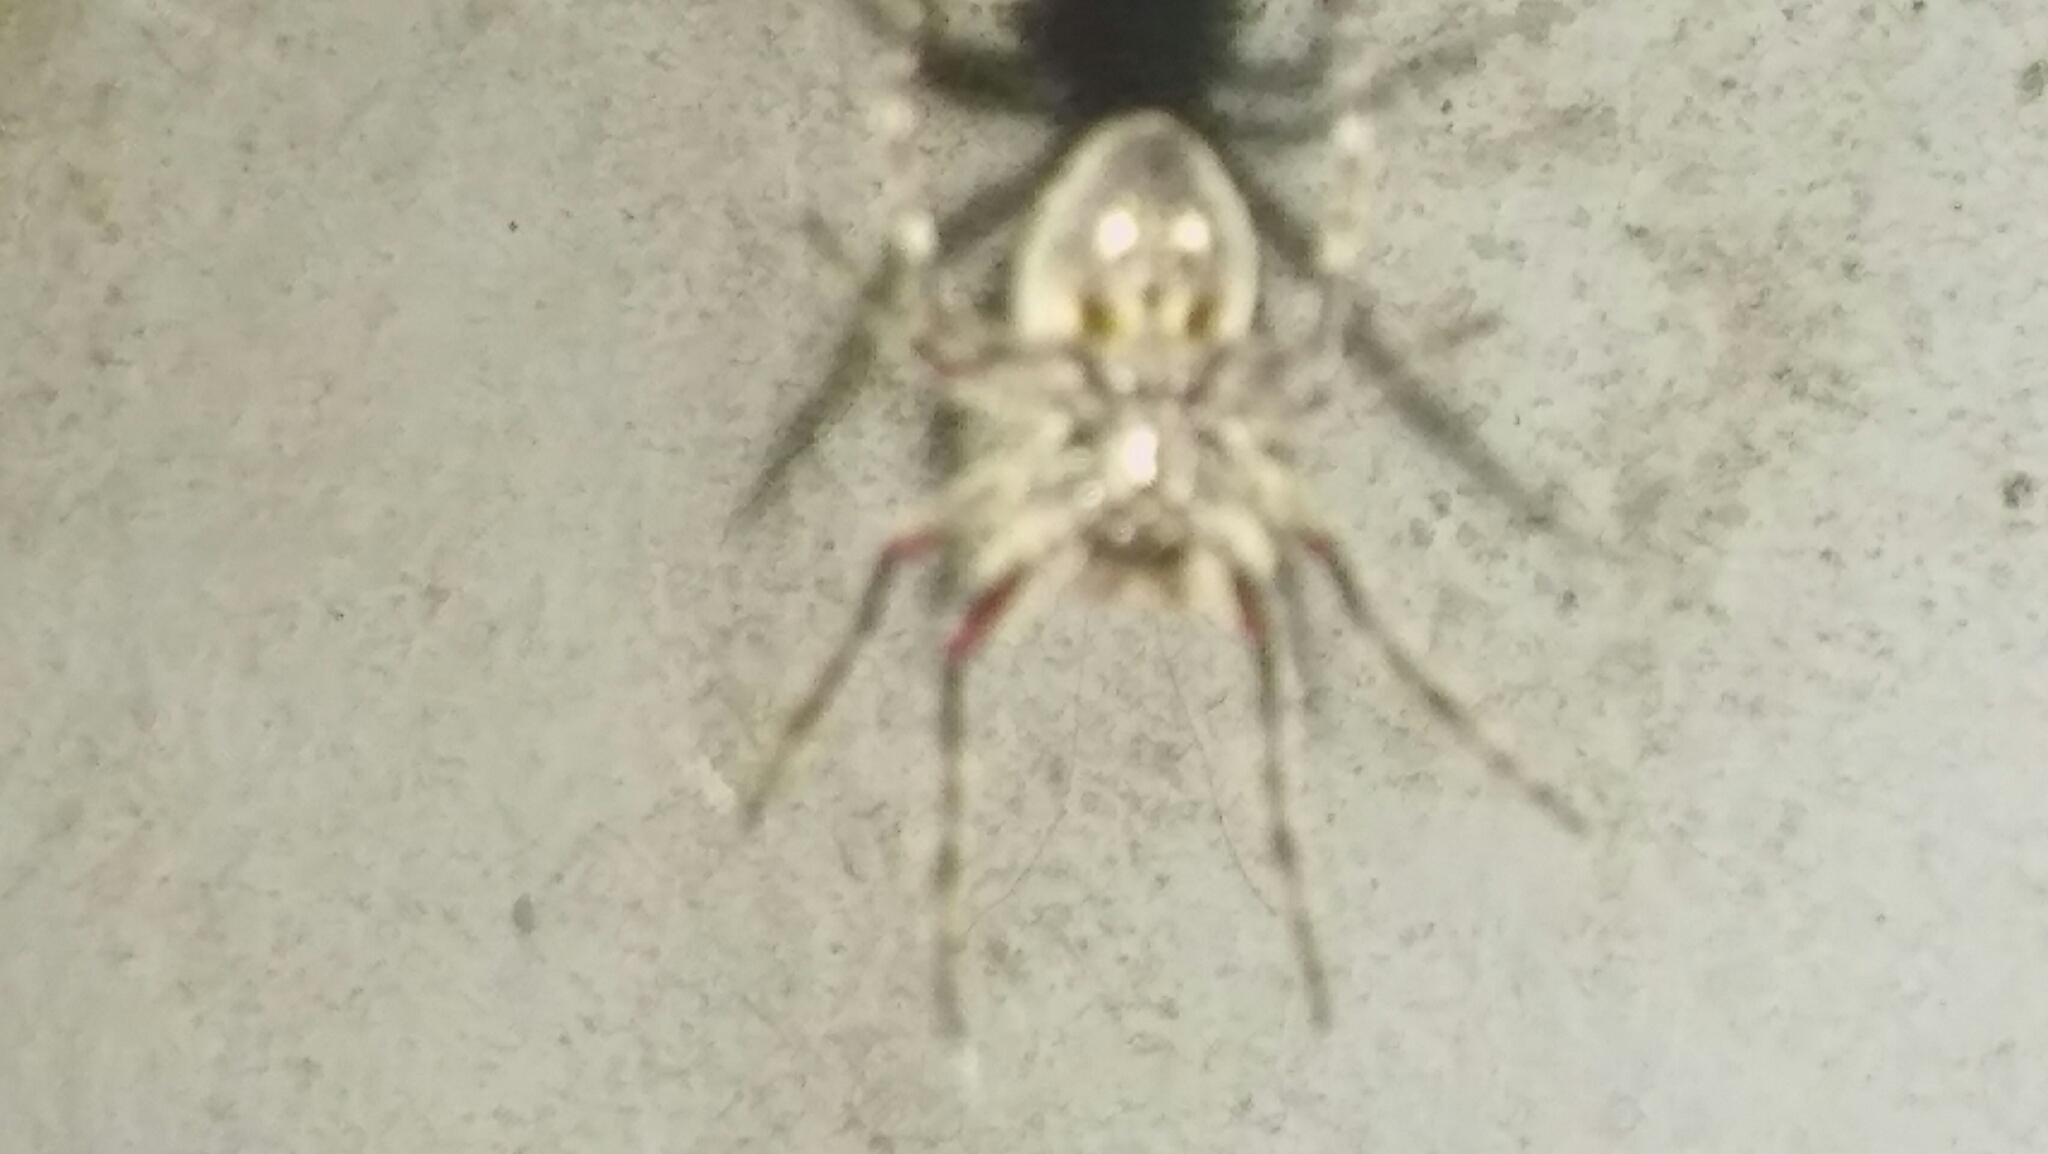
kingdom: Animalia
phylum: Arthropoda
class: Arachnida
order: Araneae
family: Araneidae
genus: Parawixia
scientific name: Parawixia audax
